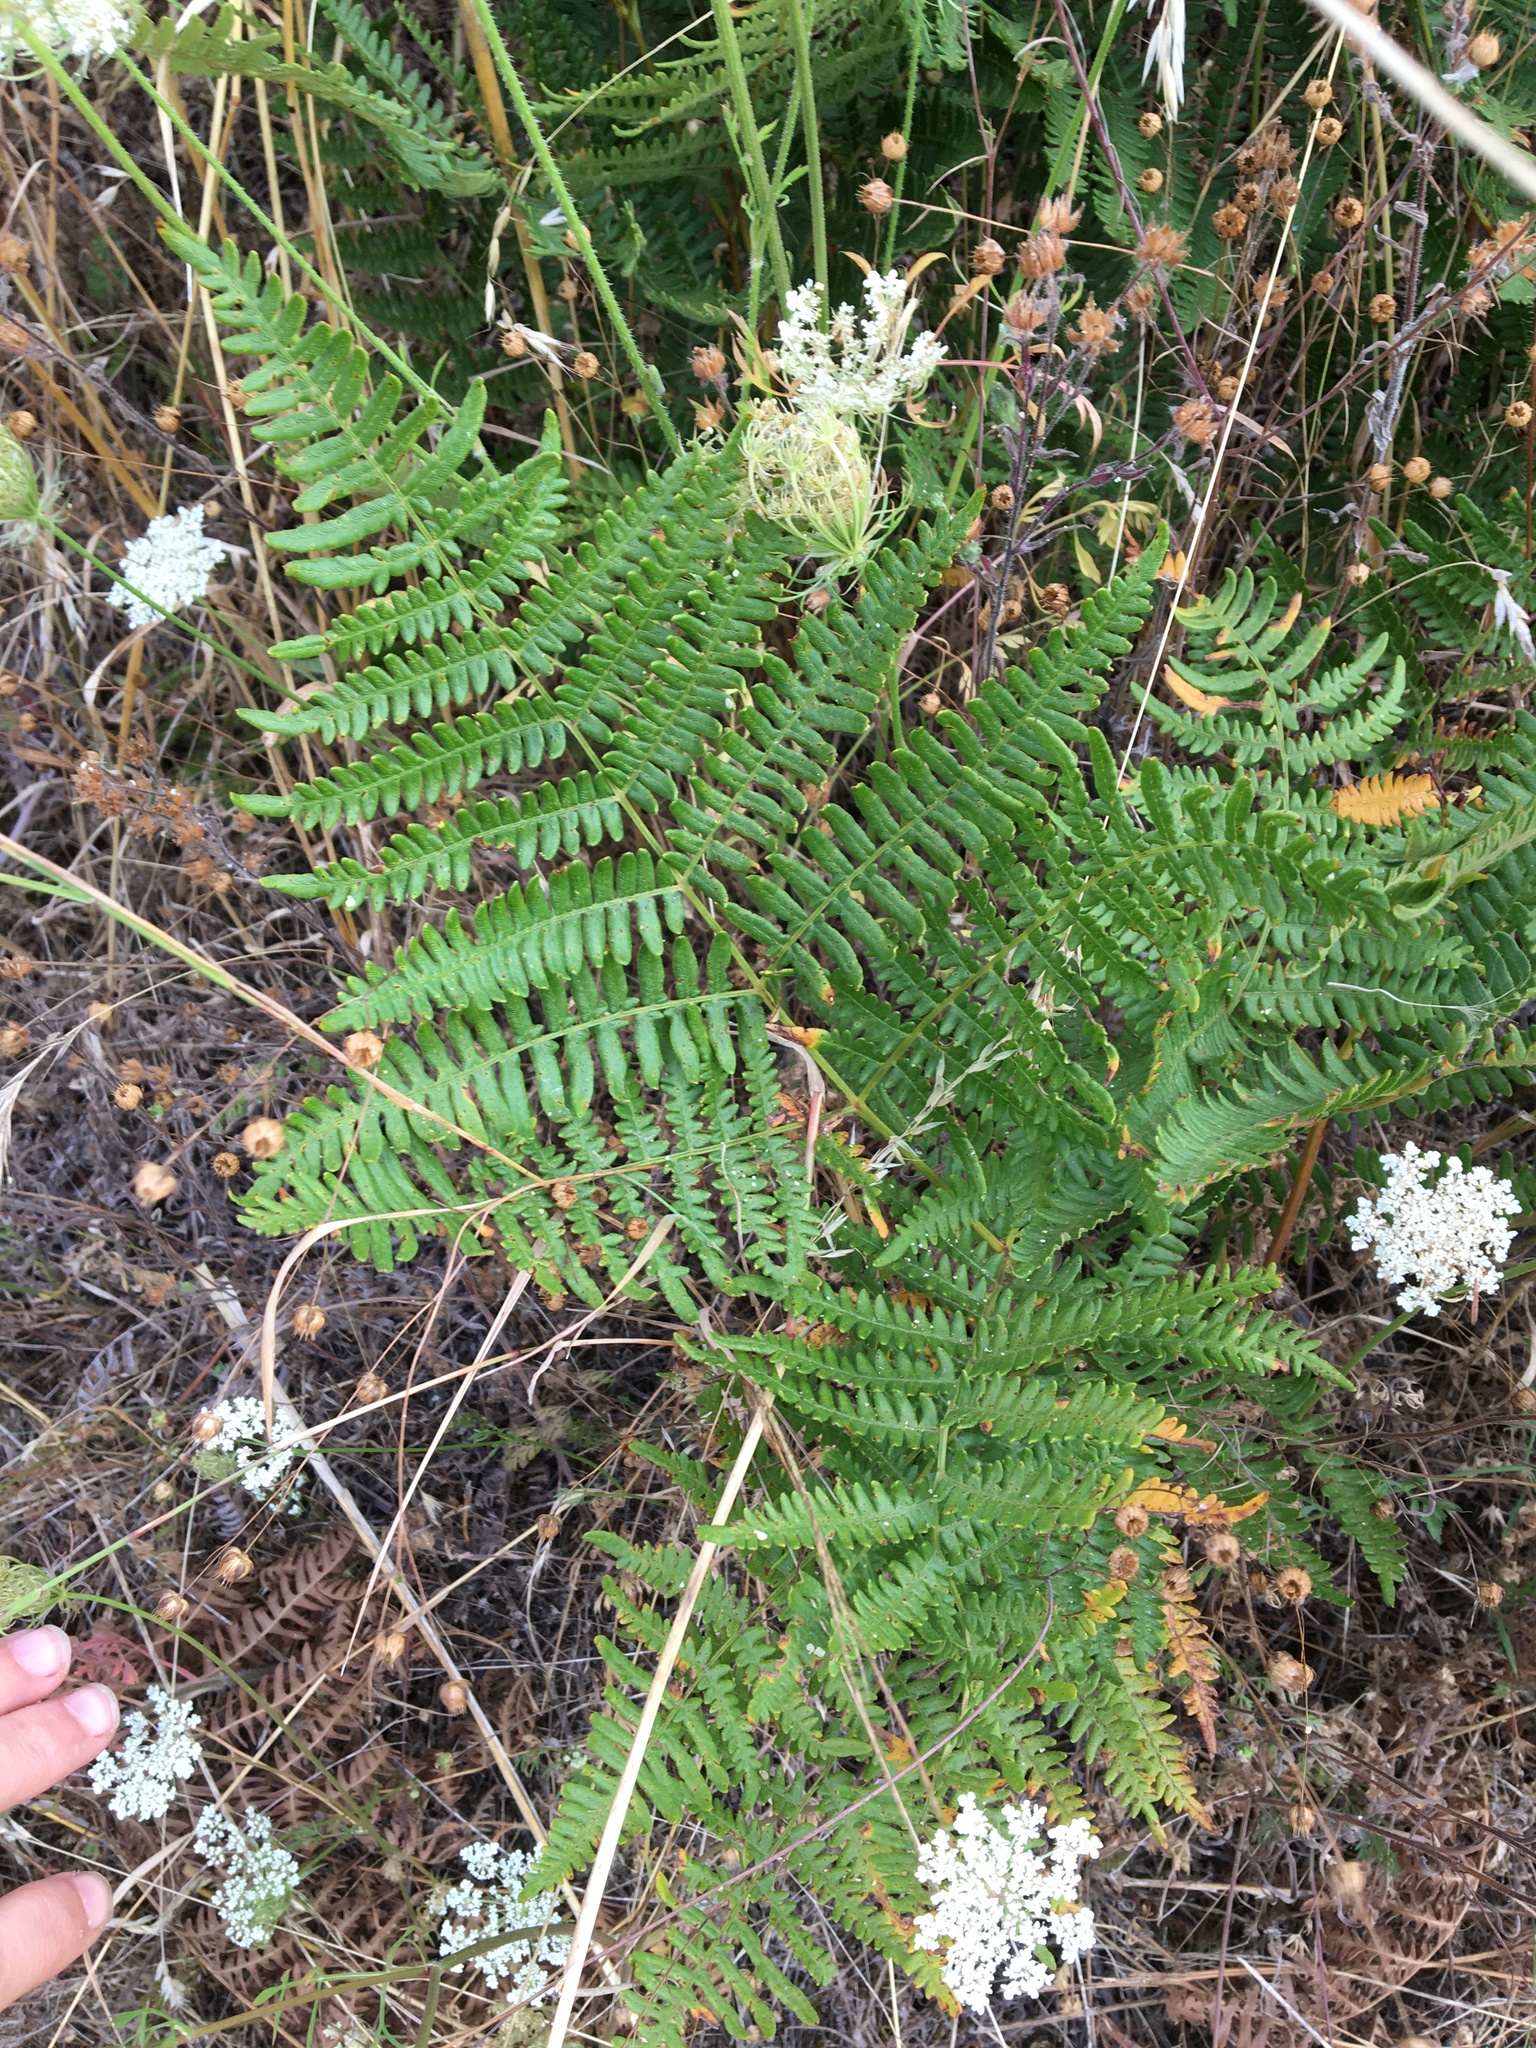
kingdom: Plantae
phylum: Tracheophyta
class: Polypodiopsida
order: Polypodiales
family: Dennstaedtiaceae
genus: Pteridium
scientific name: Pteridium aquilinum
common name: Bracken
